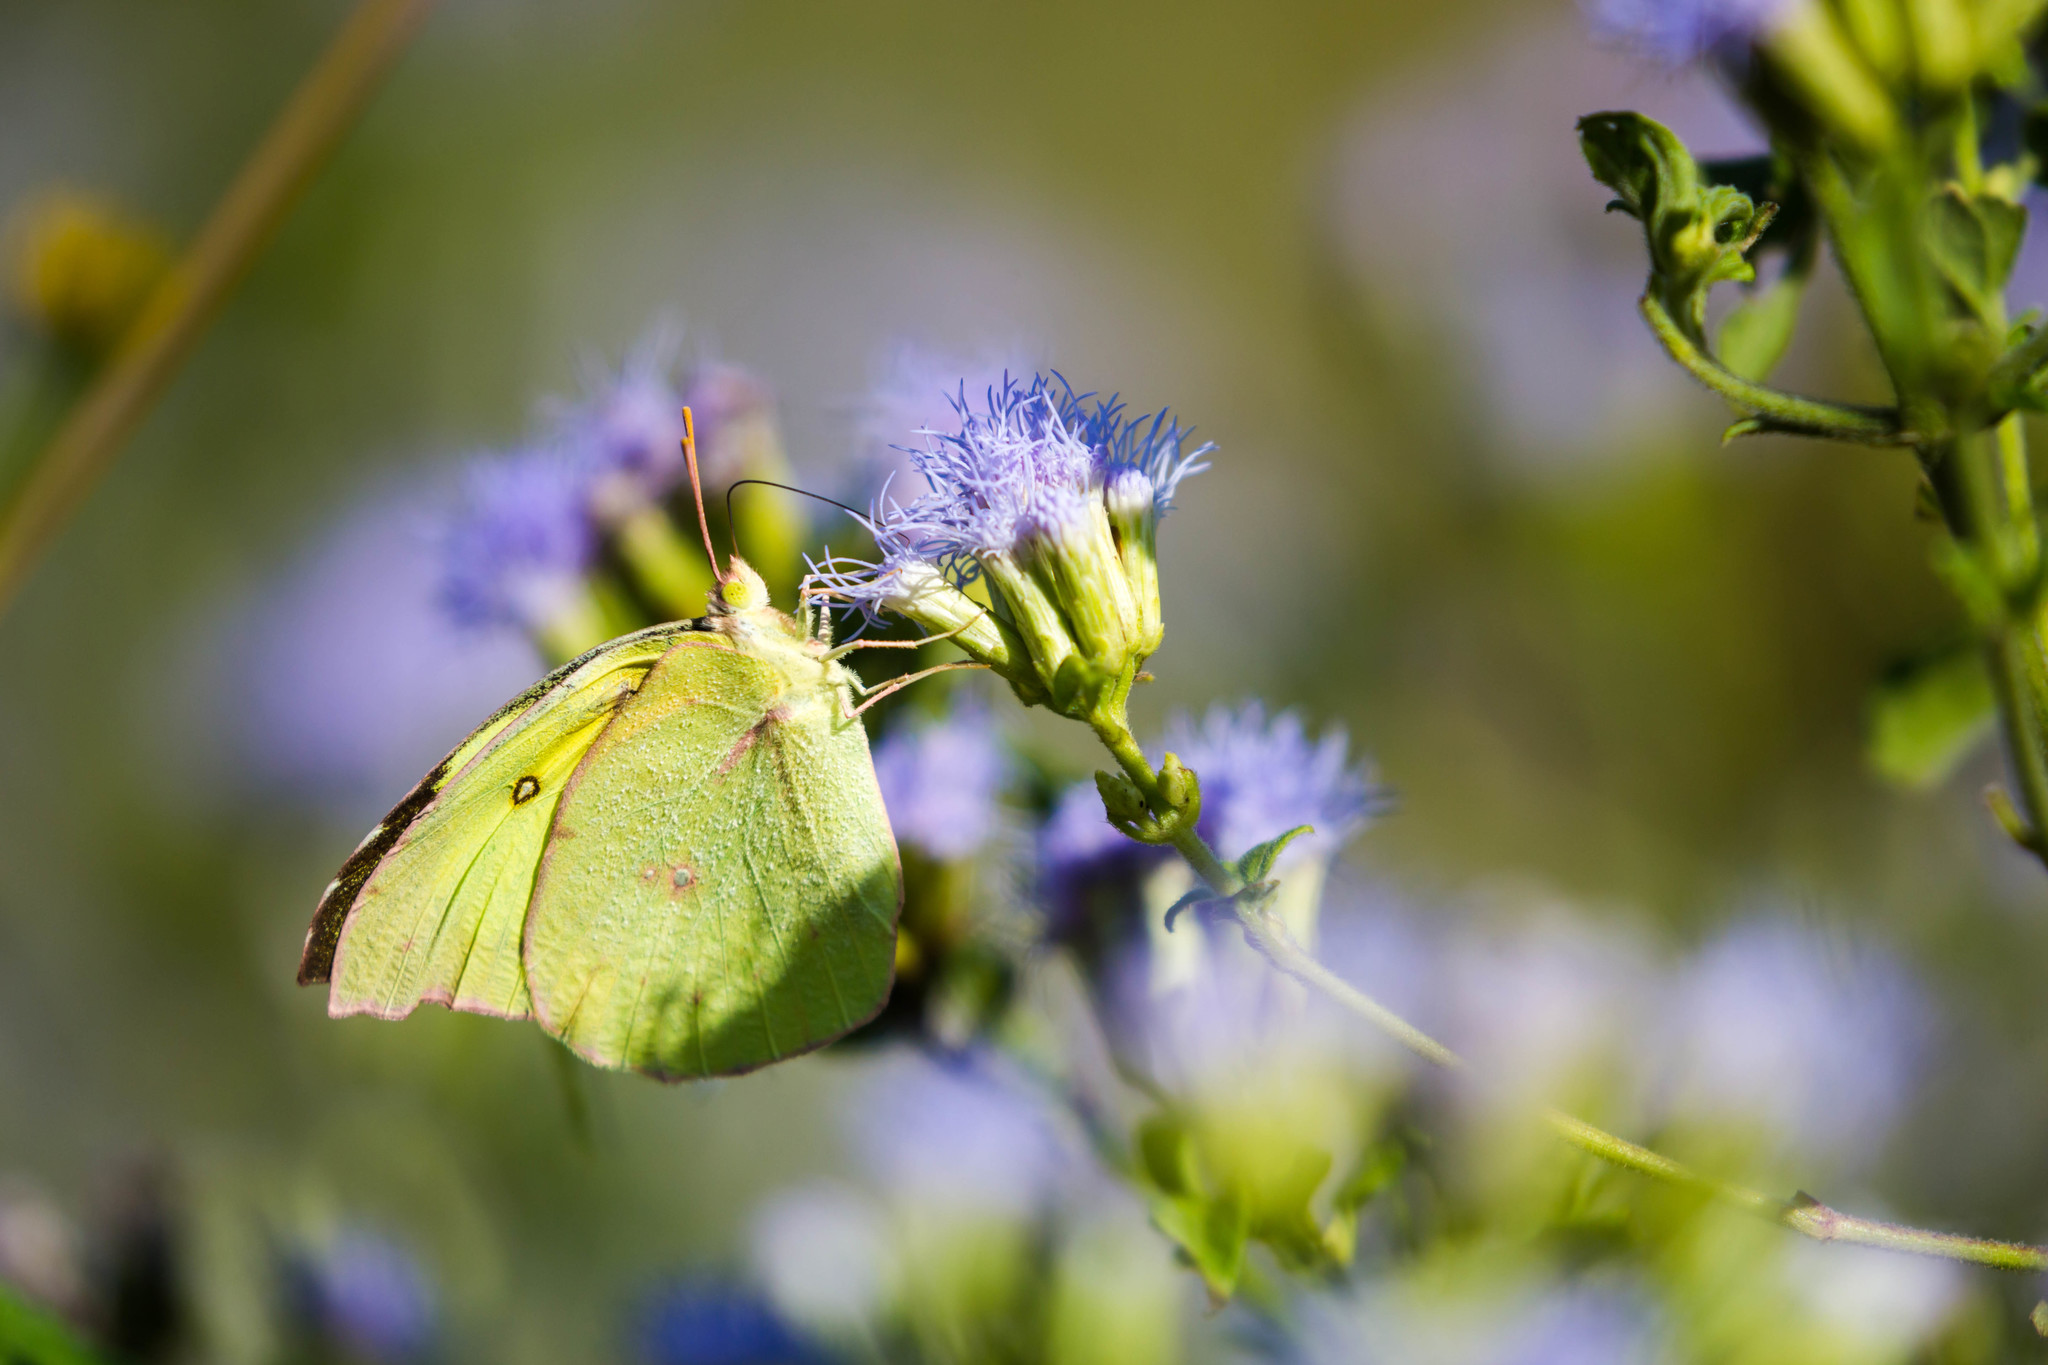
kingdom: Animalia
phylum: Arthropoda
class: Insecta
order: Lepidoptera
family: Pieridae
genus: Zerene
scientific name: Zerene cesonia
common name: Southern dogface
